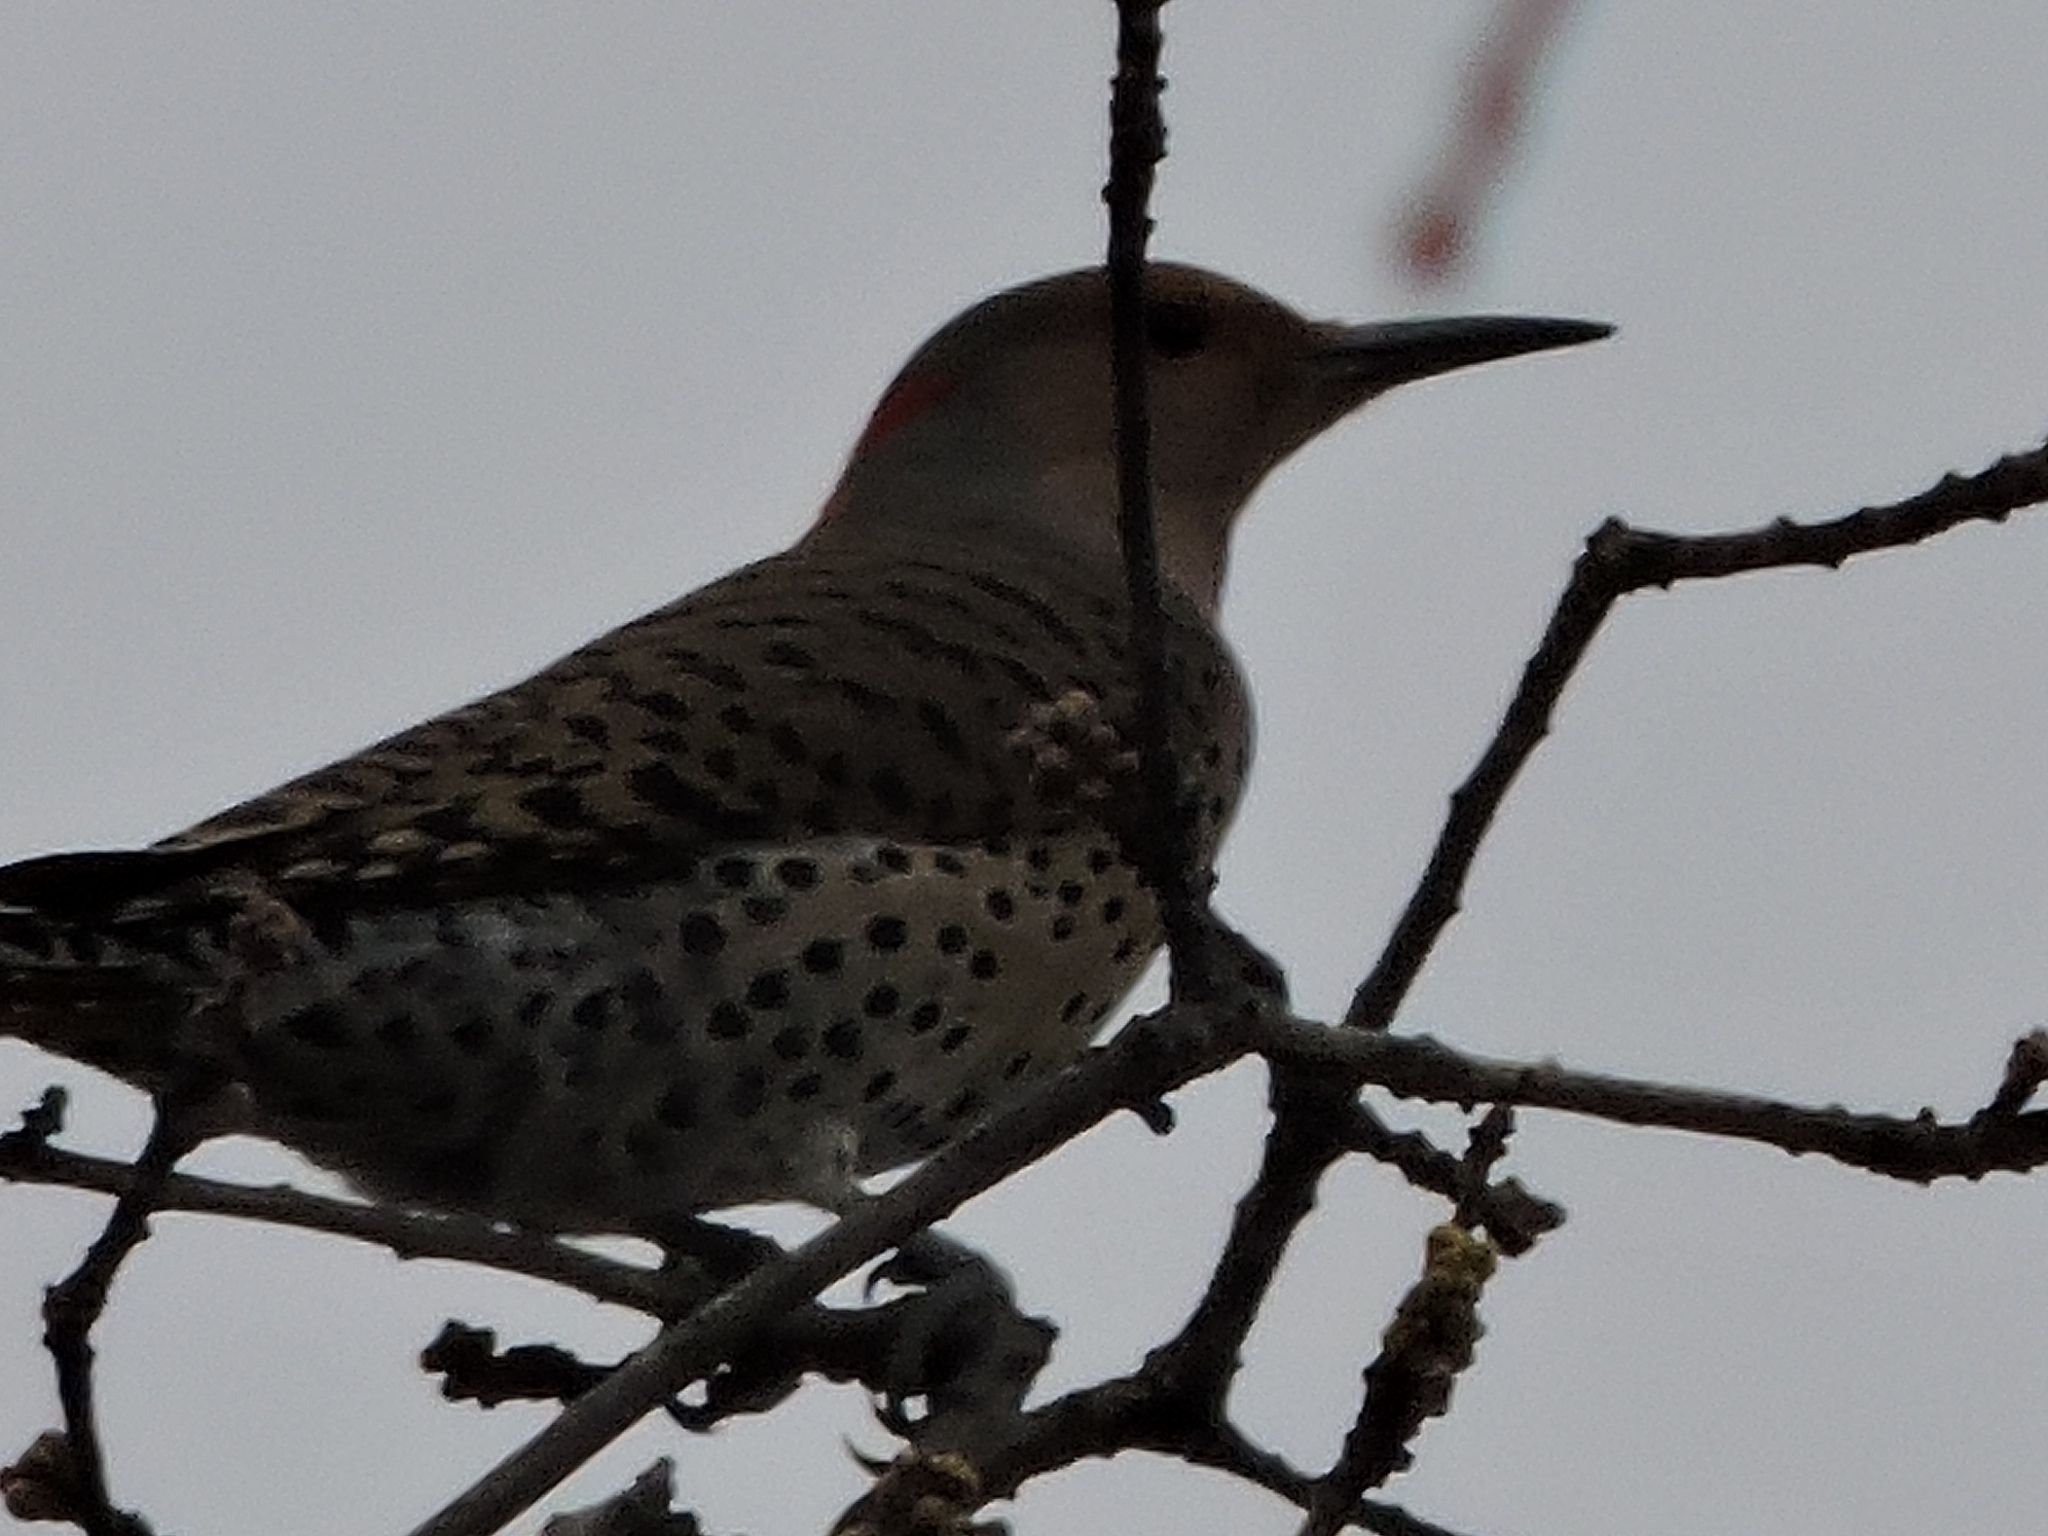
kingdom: Animalia
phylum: Chordata
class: Aves
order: Piciformes
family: Picidae
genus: Colaptes
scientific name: Colaptes auratus
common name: Northern flicker
